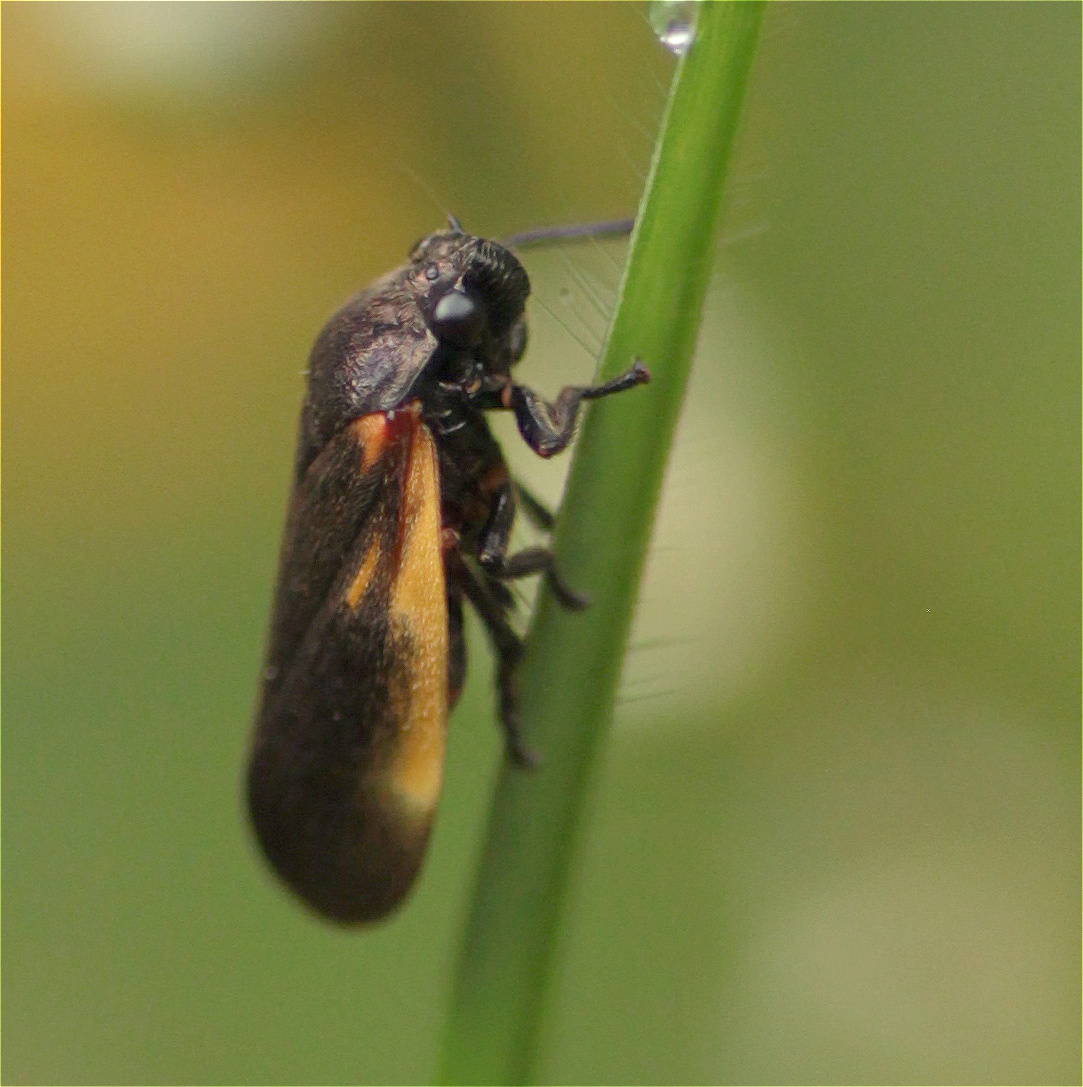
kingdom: Animalia
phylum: Arthropoda
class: Insecta
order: Hemiptera
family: Cercopidae
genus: Aeneolamia
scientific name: Aeneolamia flavilatera
